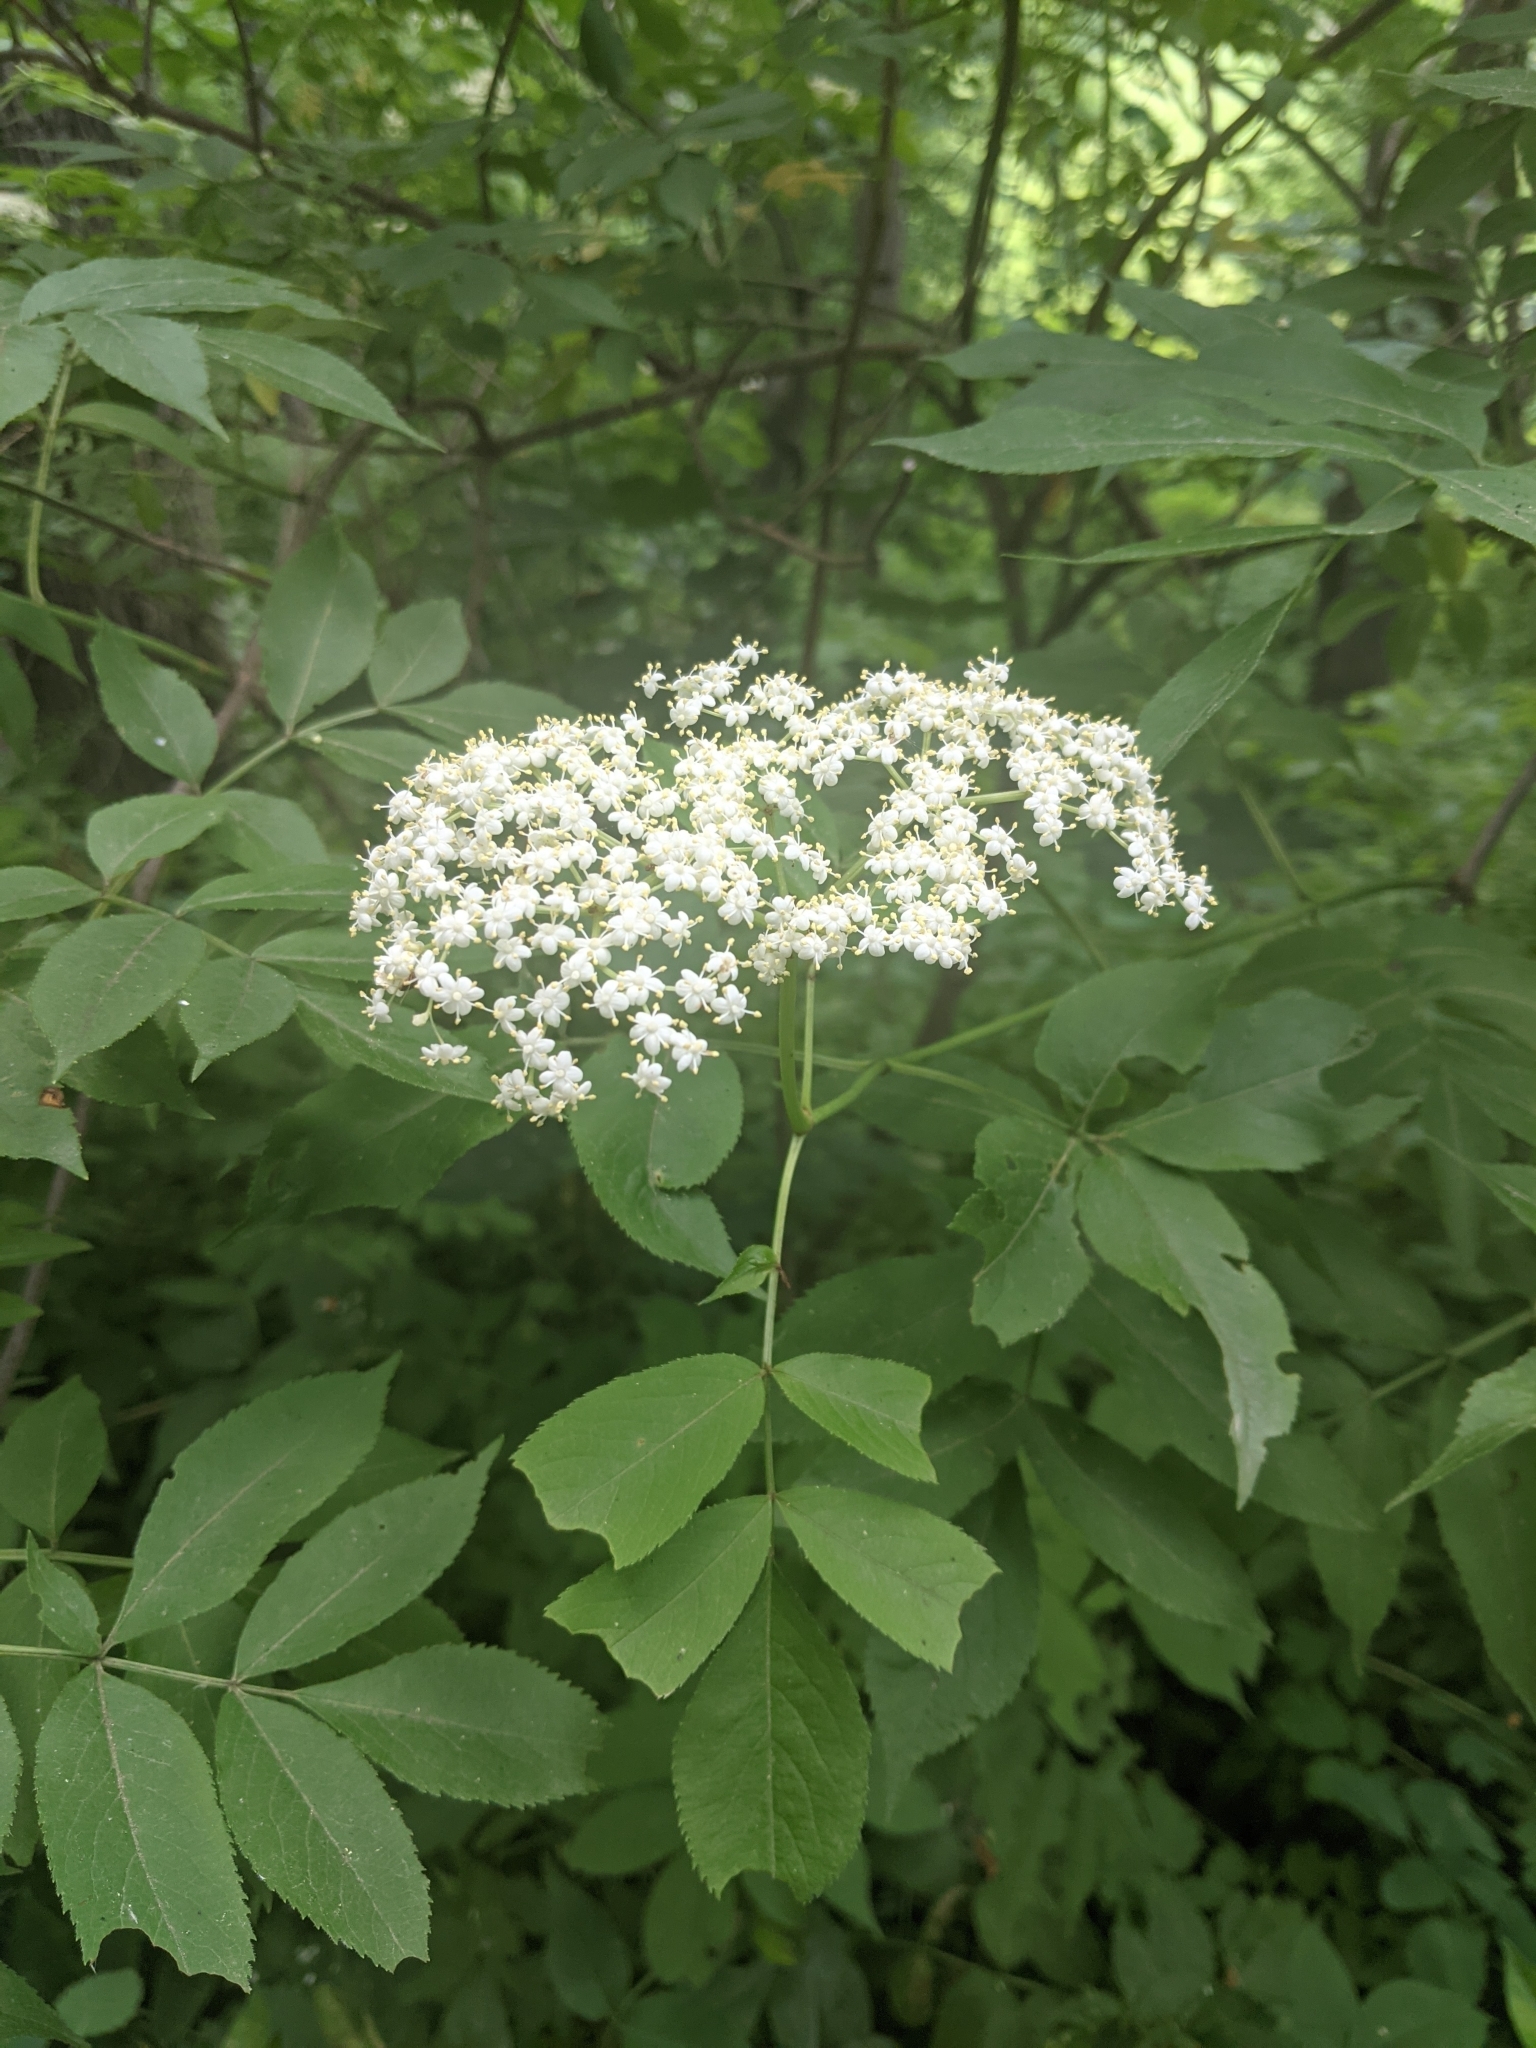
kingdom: Plantae
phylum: Tracheophyta
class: Magnoliopsida
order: Dipsacales
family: Viburnaceae
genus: Sambucus
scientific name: Sambucus canadensis
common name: American elder
